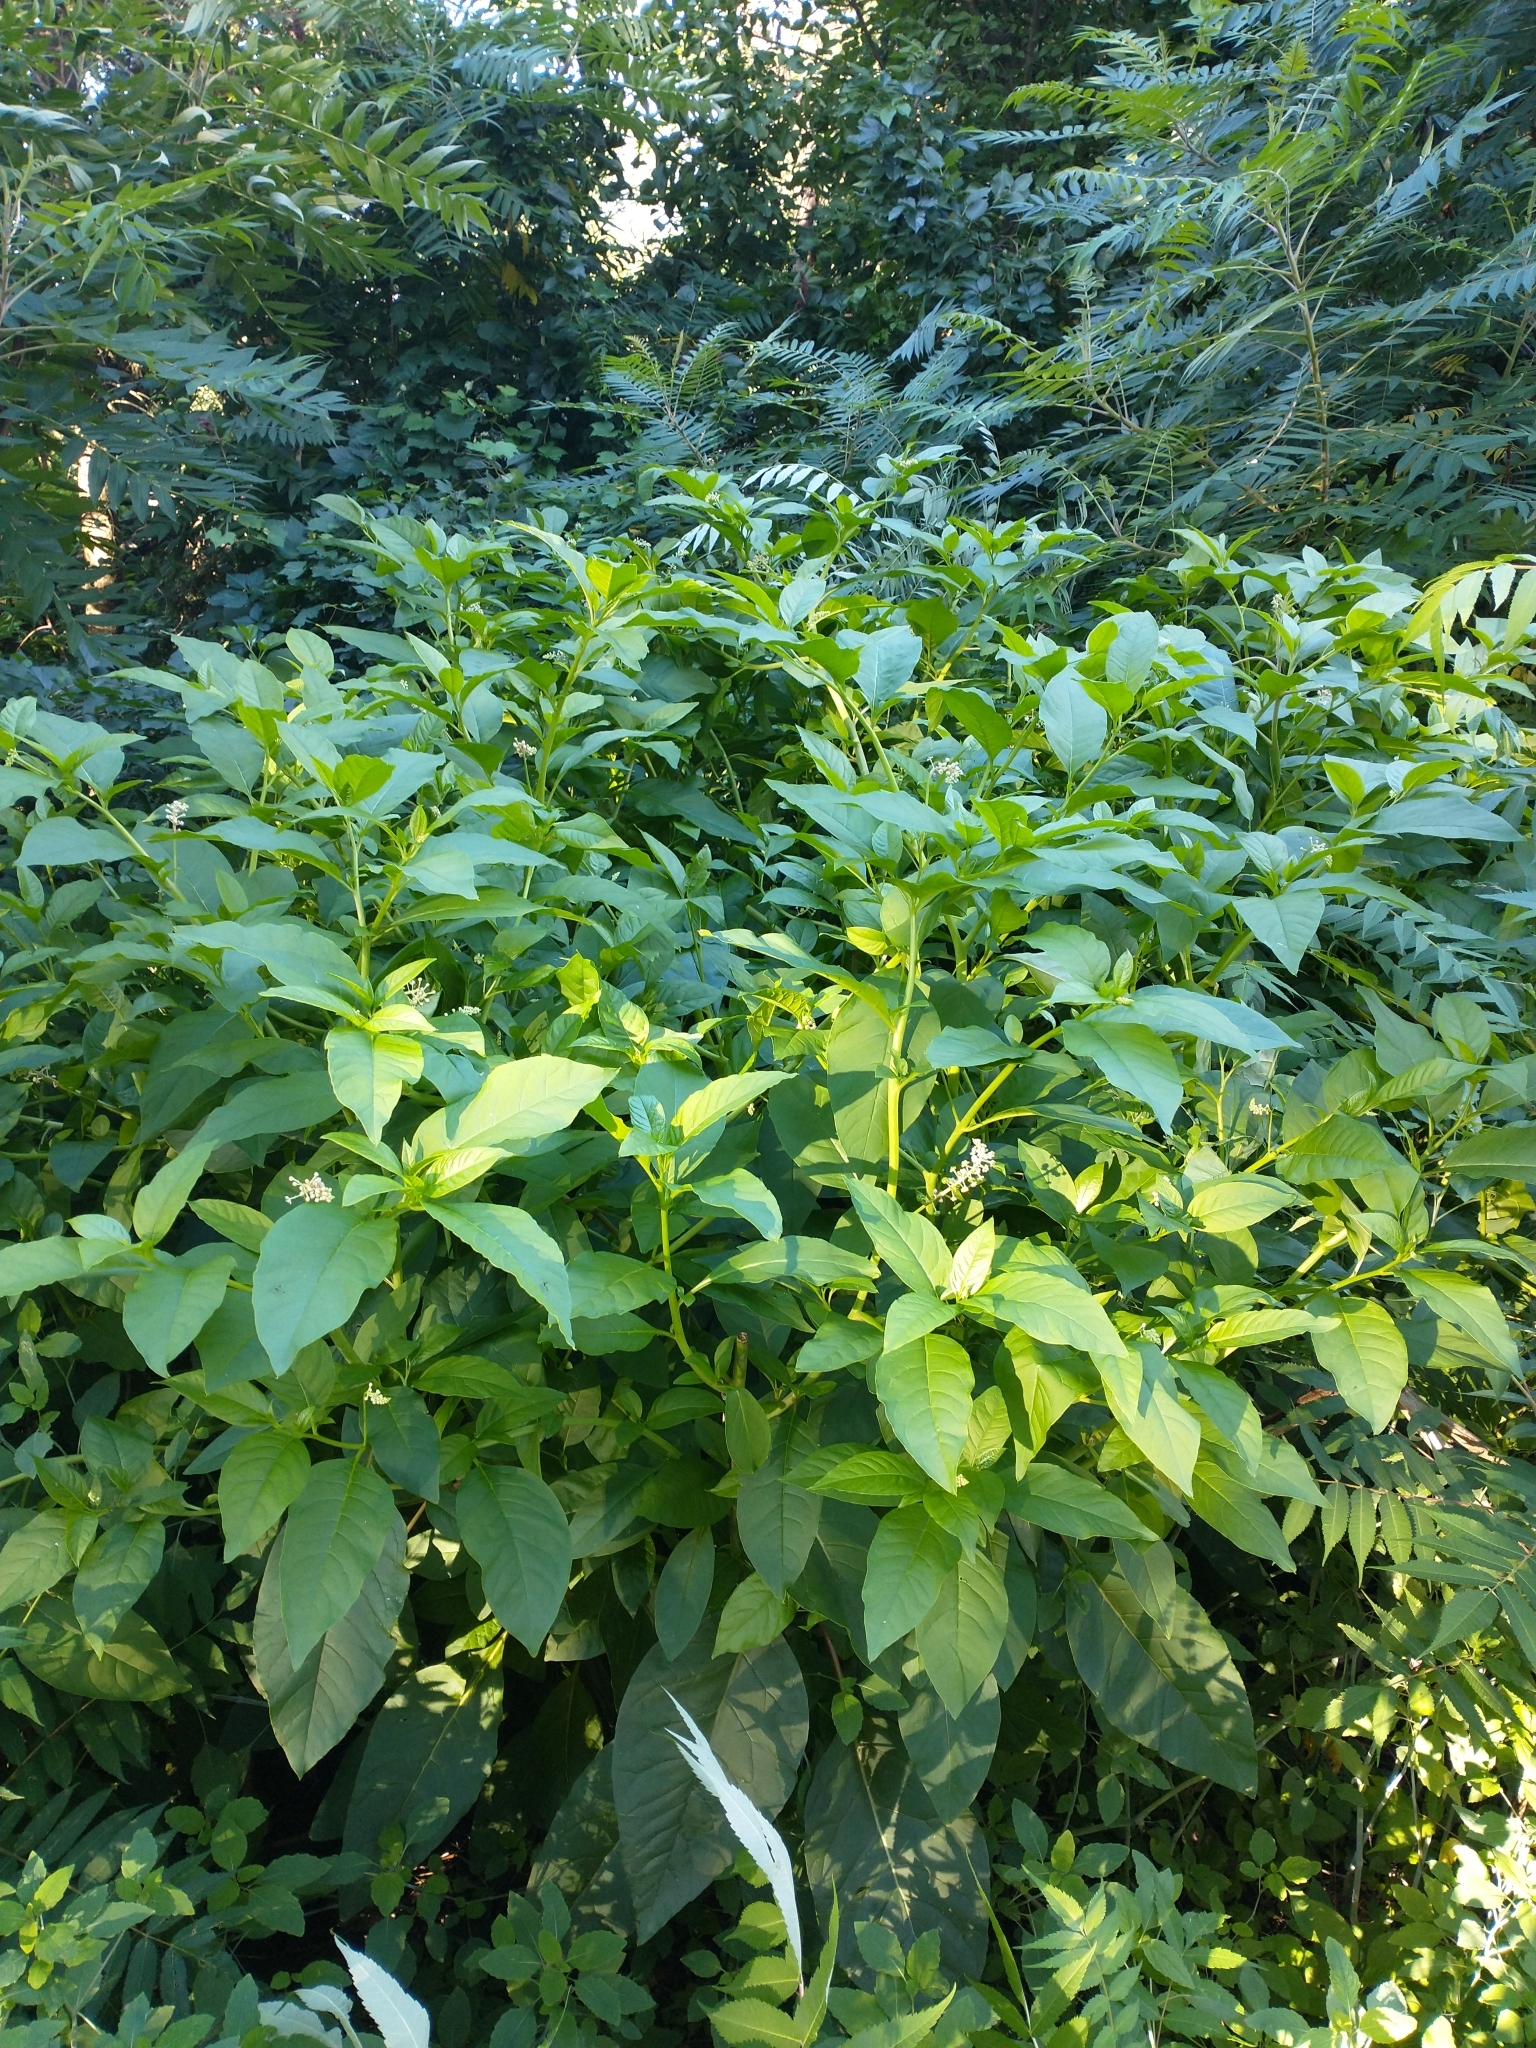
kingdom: Plantae
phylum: Tracheophyta
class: Magnoliopsida
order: Caryophyllales
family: Phytolaccaceae
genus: Phytolacca
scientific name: Phytolacca americana
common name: American pokeweed
